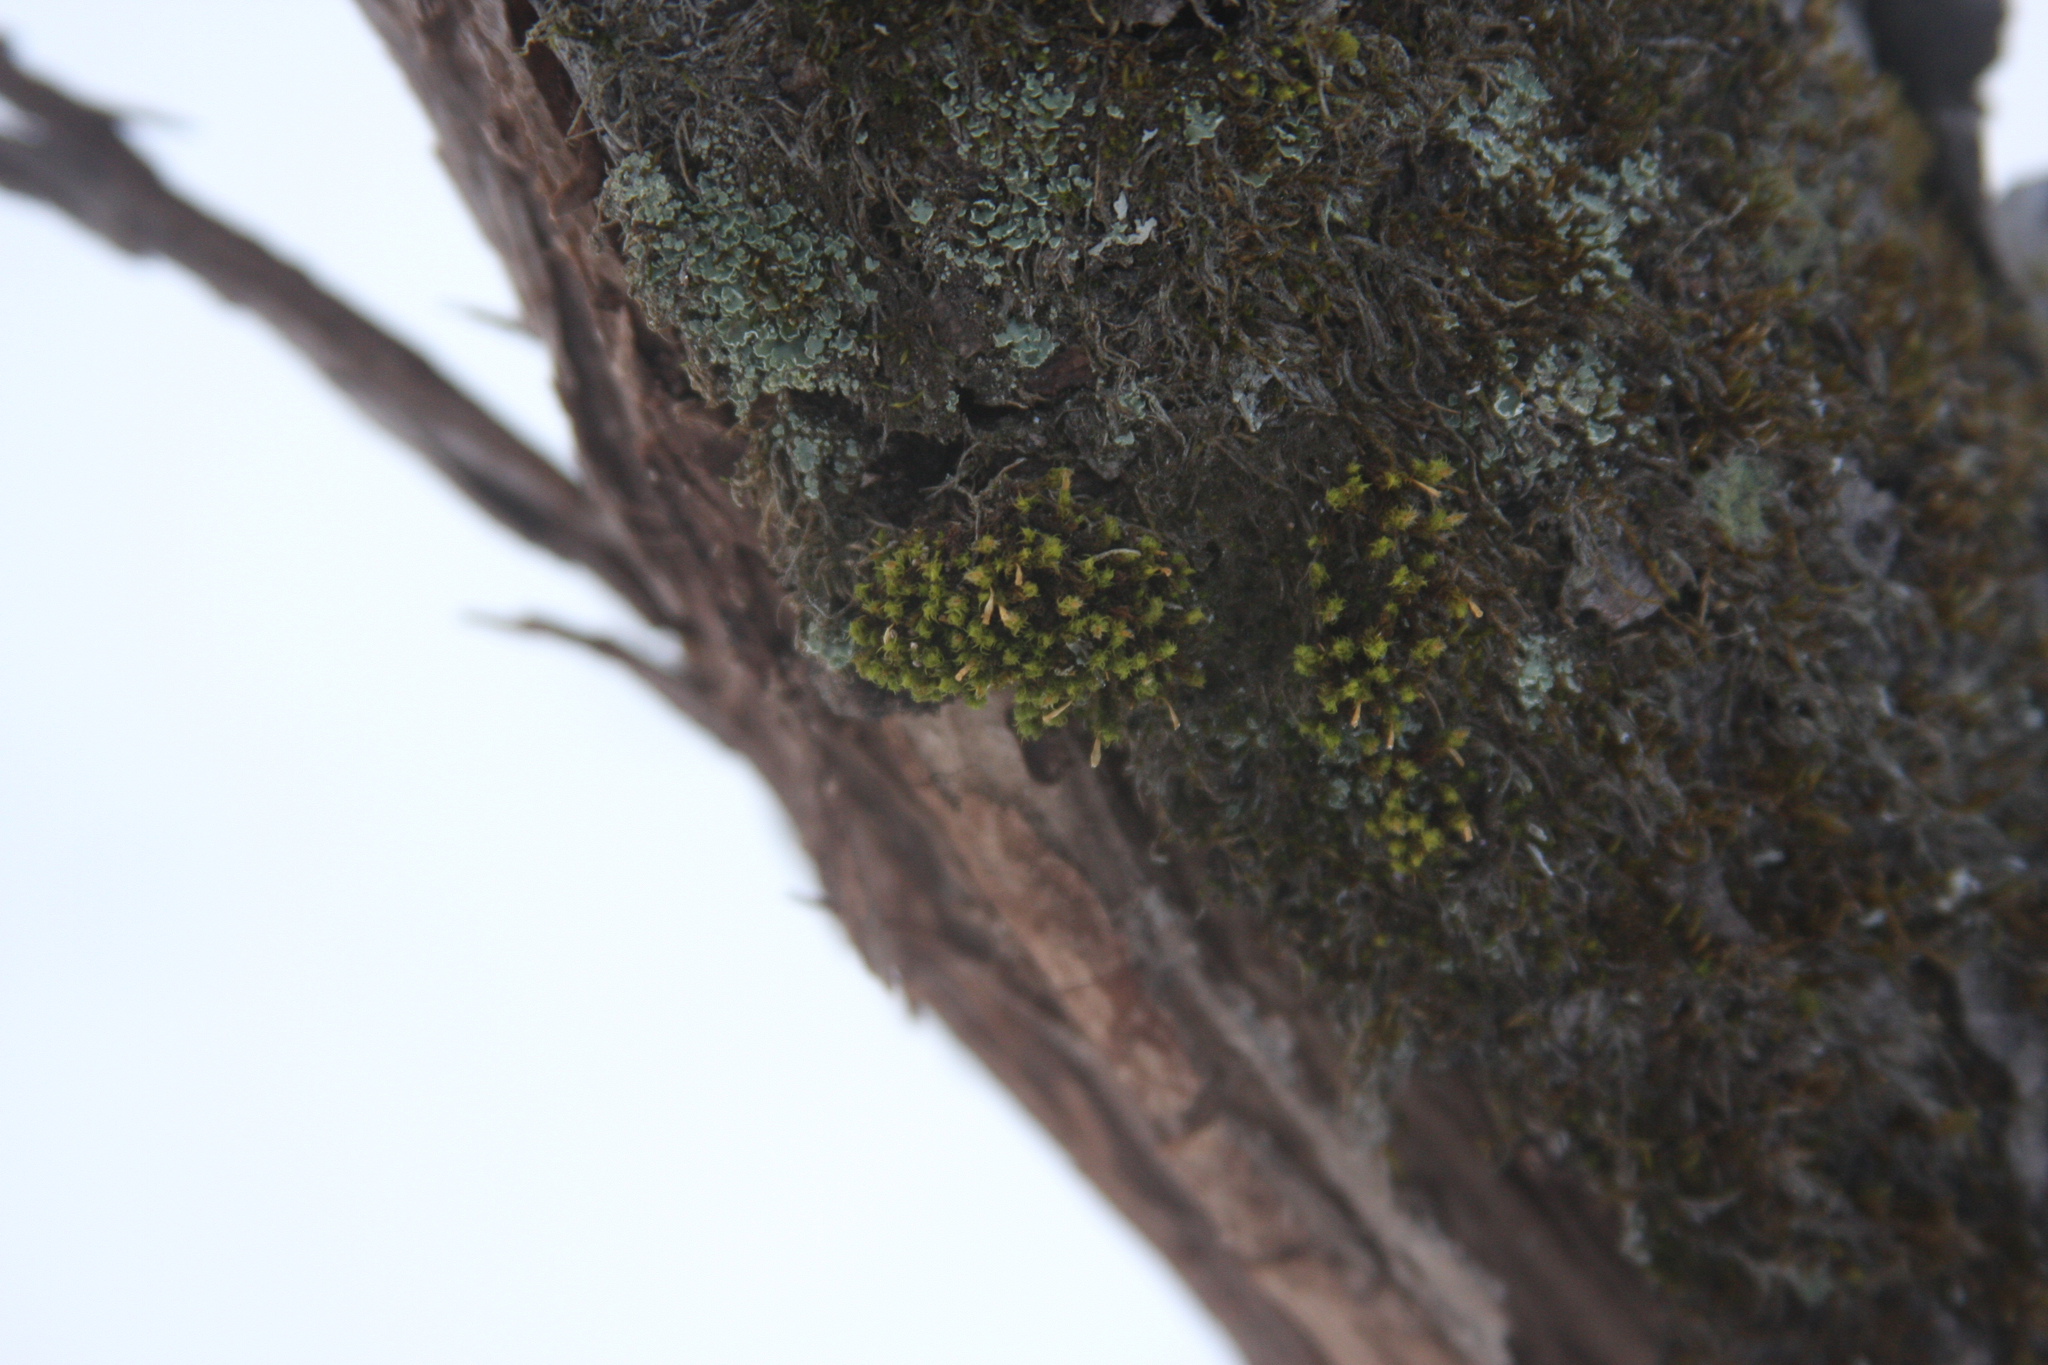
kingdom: Plantae
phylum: Bryophyta
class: Bryopsida
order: Orthotrichales
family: Orthotrichaceae
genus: Ulota
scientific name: Ulota crispa
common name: Crisped pincushion moss
